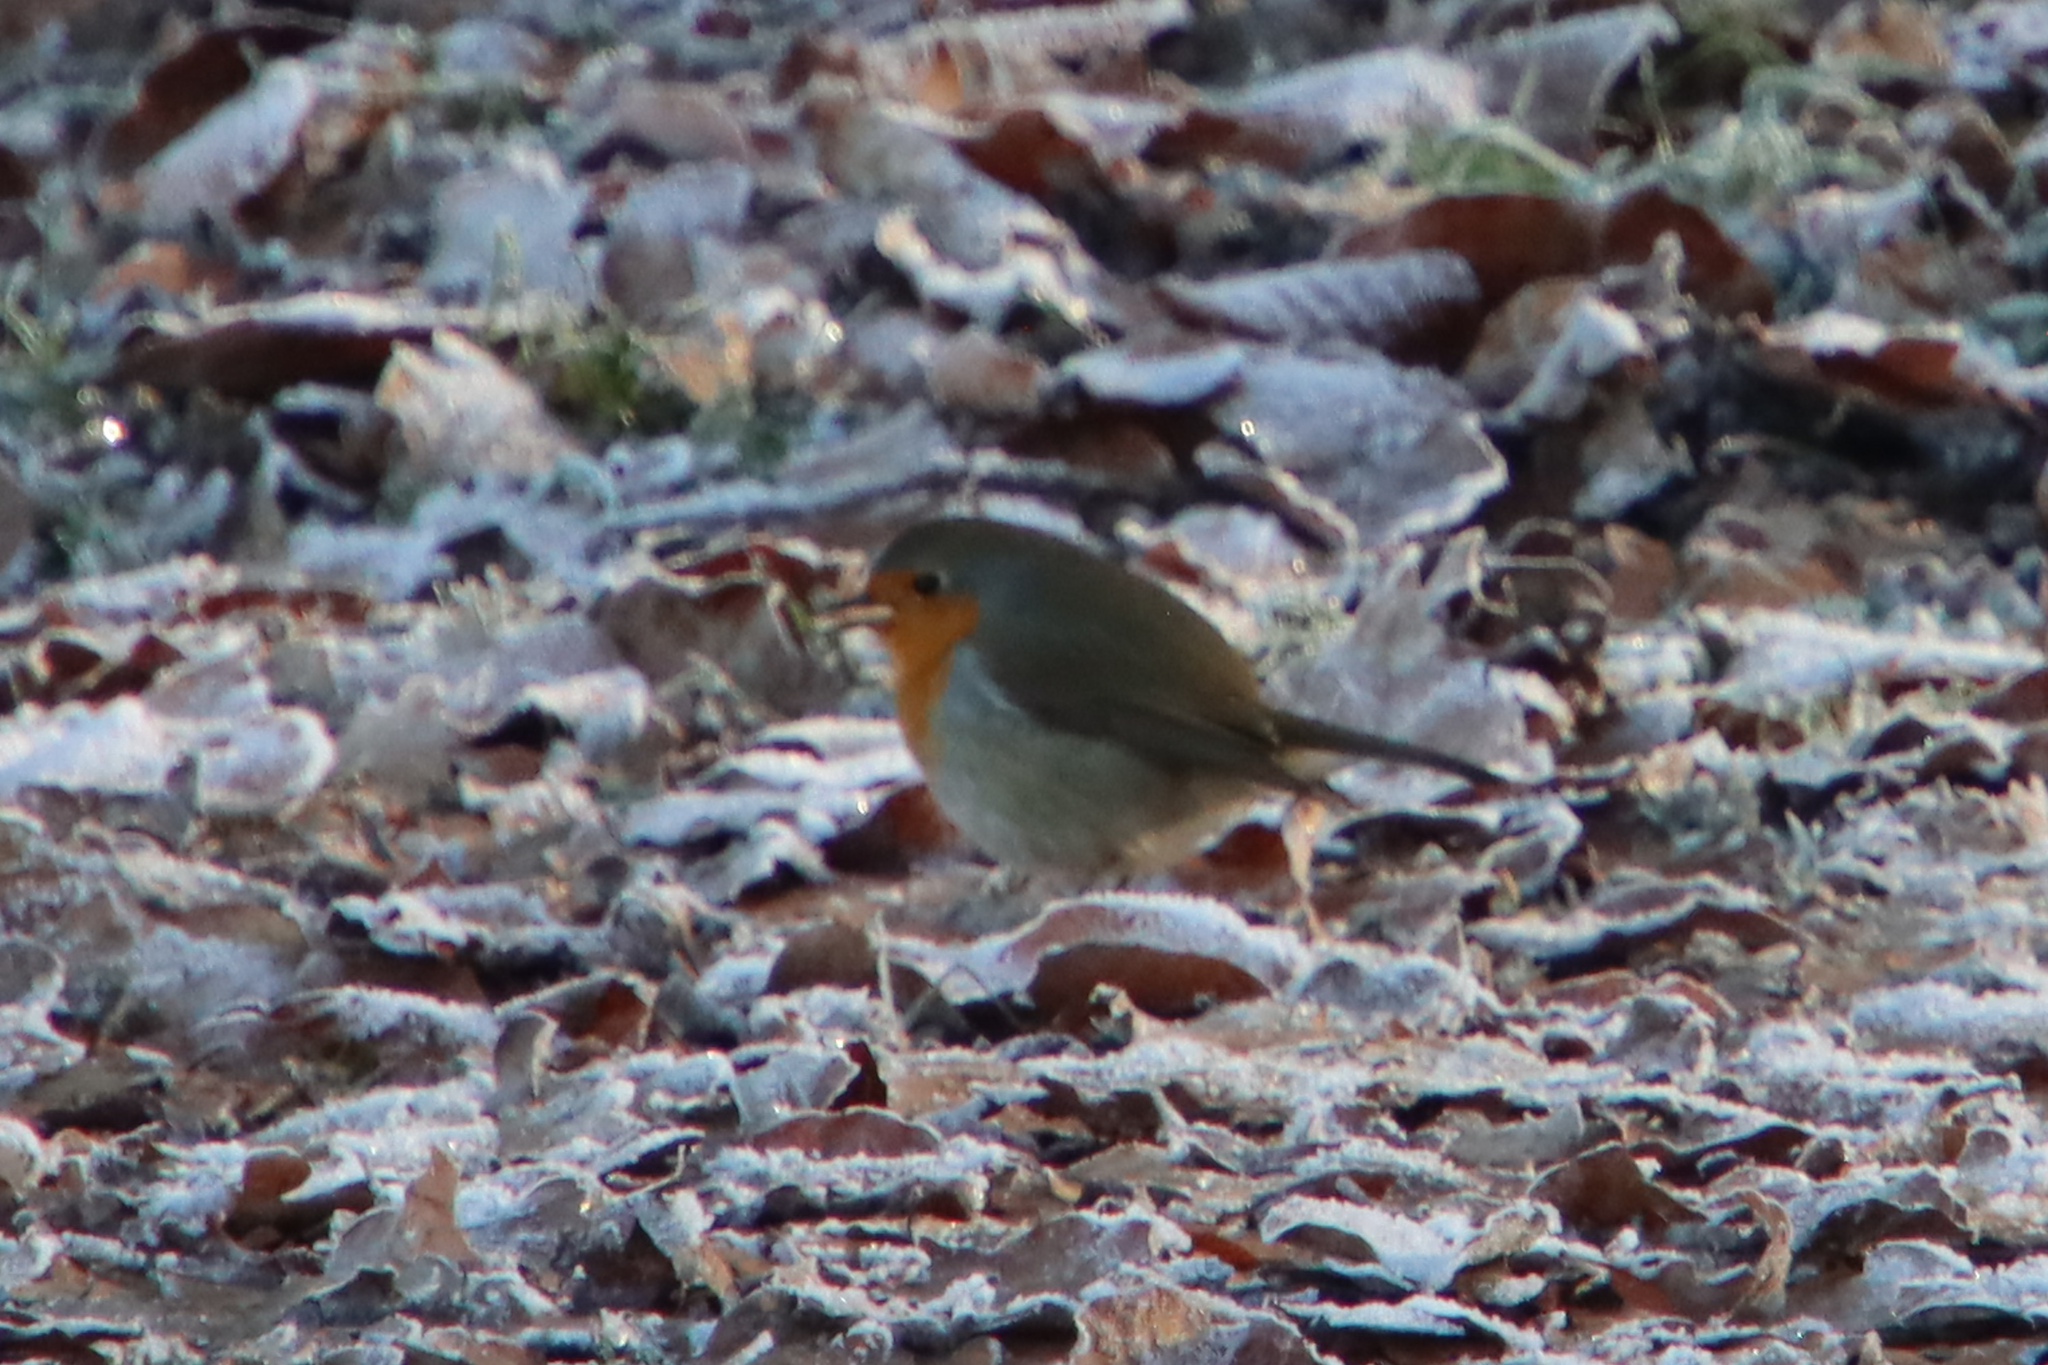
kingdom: Animalia
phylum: Chordata
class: Aves
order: Passeriformes
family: Muscicapidae
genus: Erithacus
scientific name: Erithacus rubecula
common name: European robin
